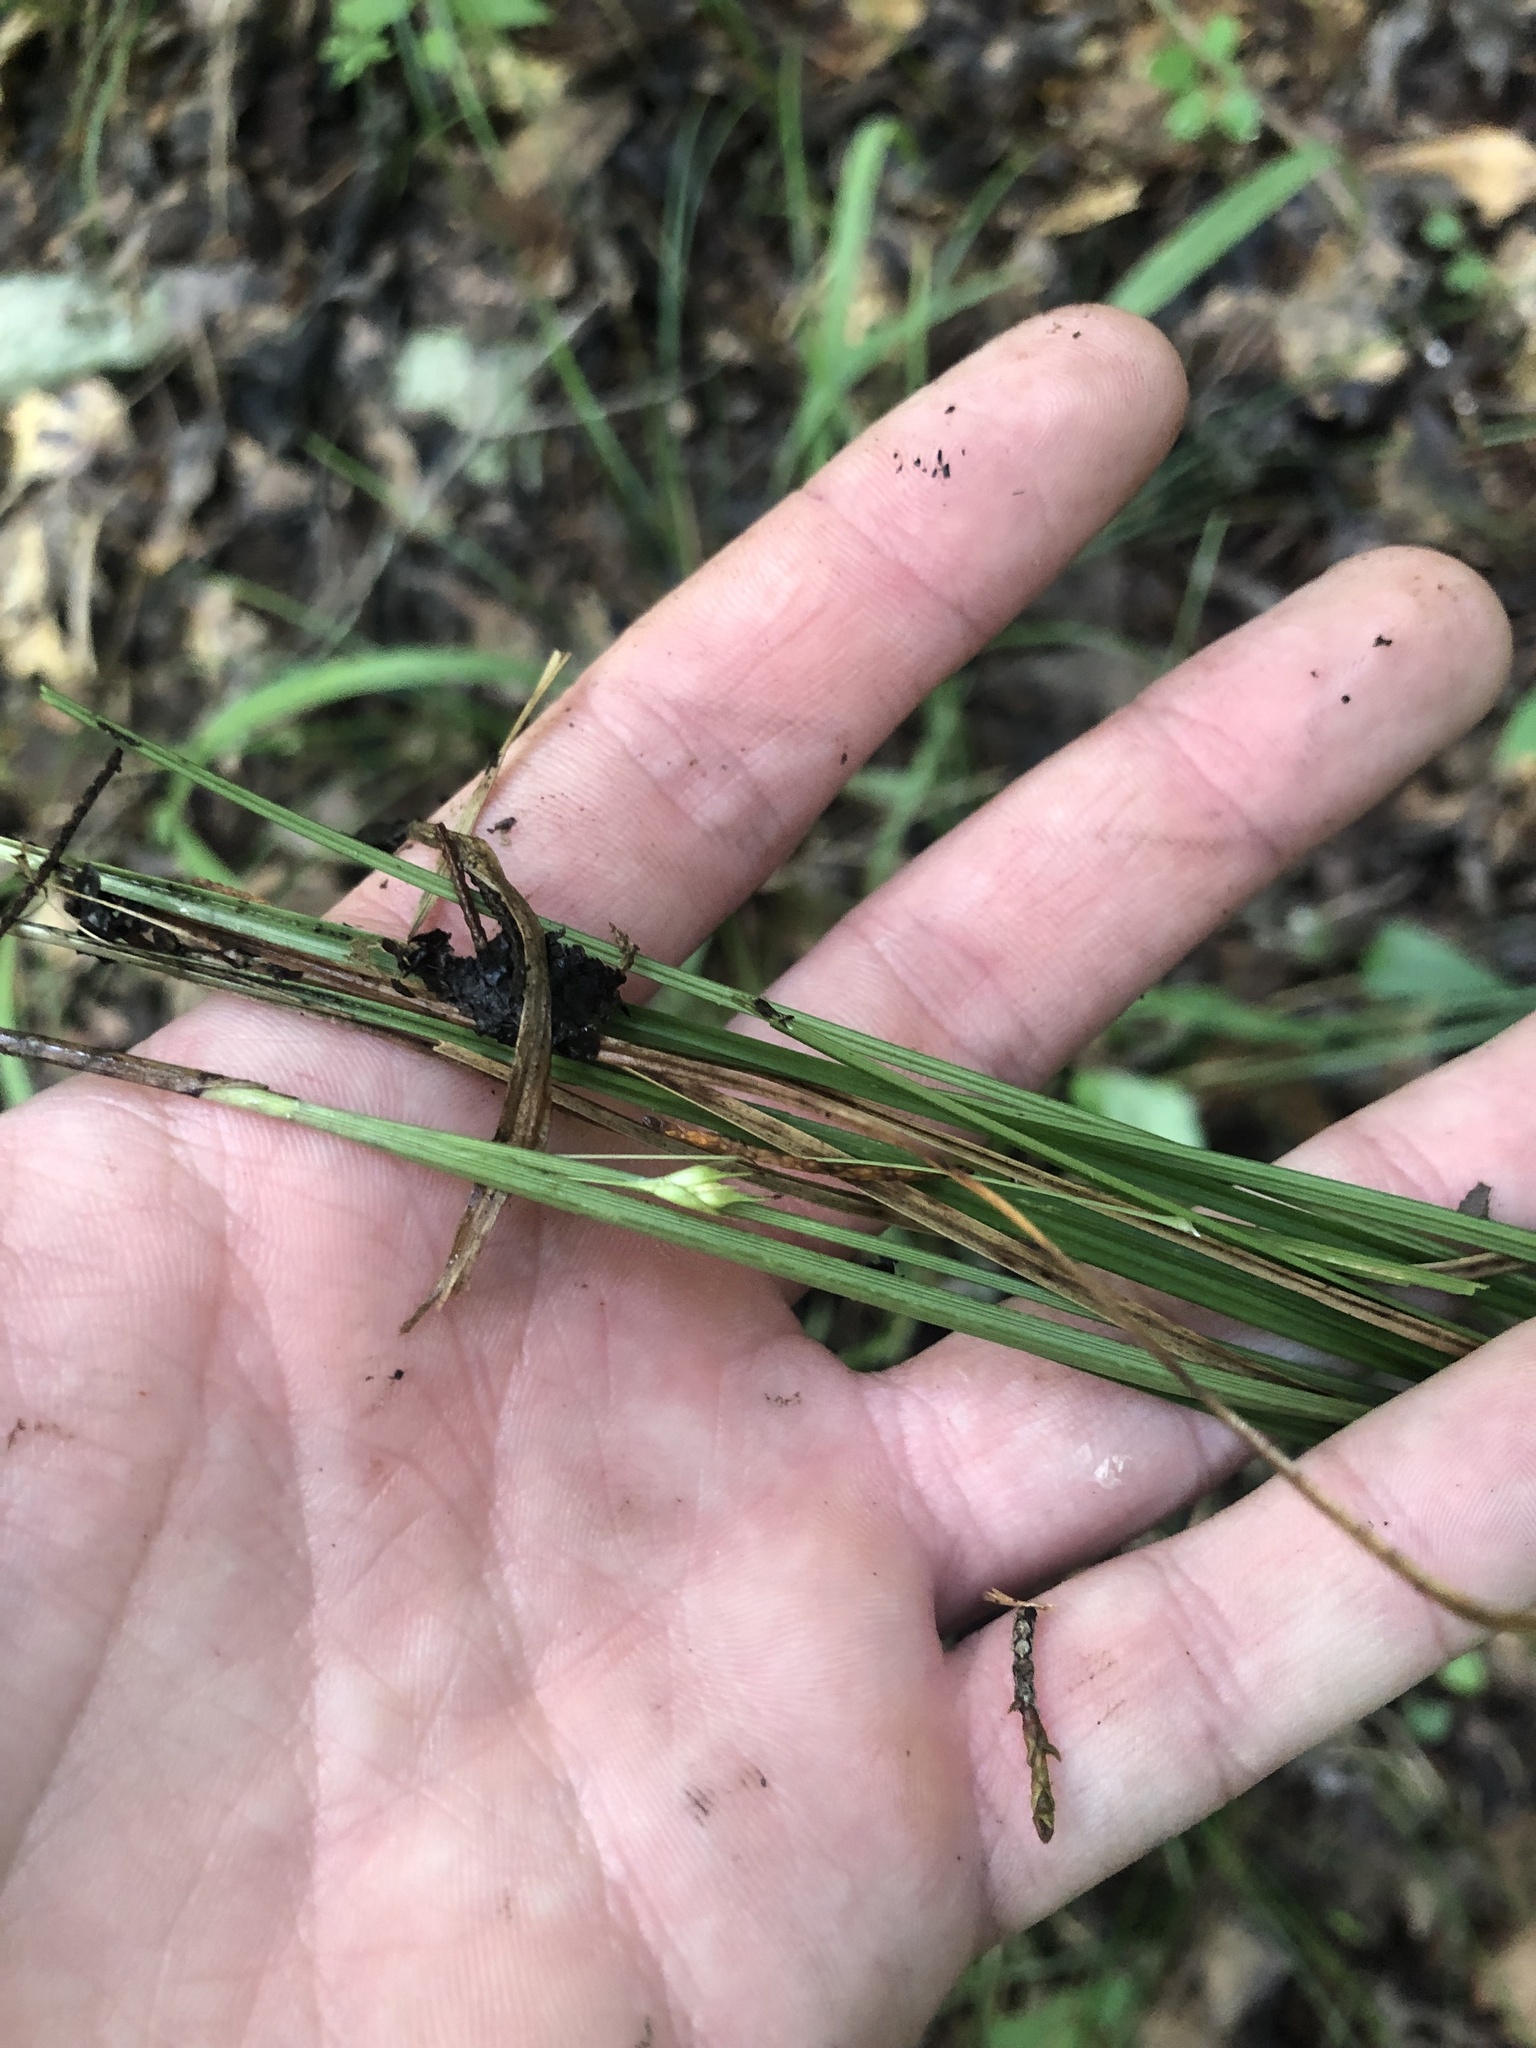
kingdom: Plantae
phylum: Tracheophyta
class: Liliopsida
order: Poales
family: Cyperaceae
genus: Carex
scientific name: Carex superata
